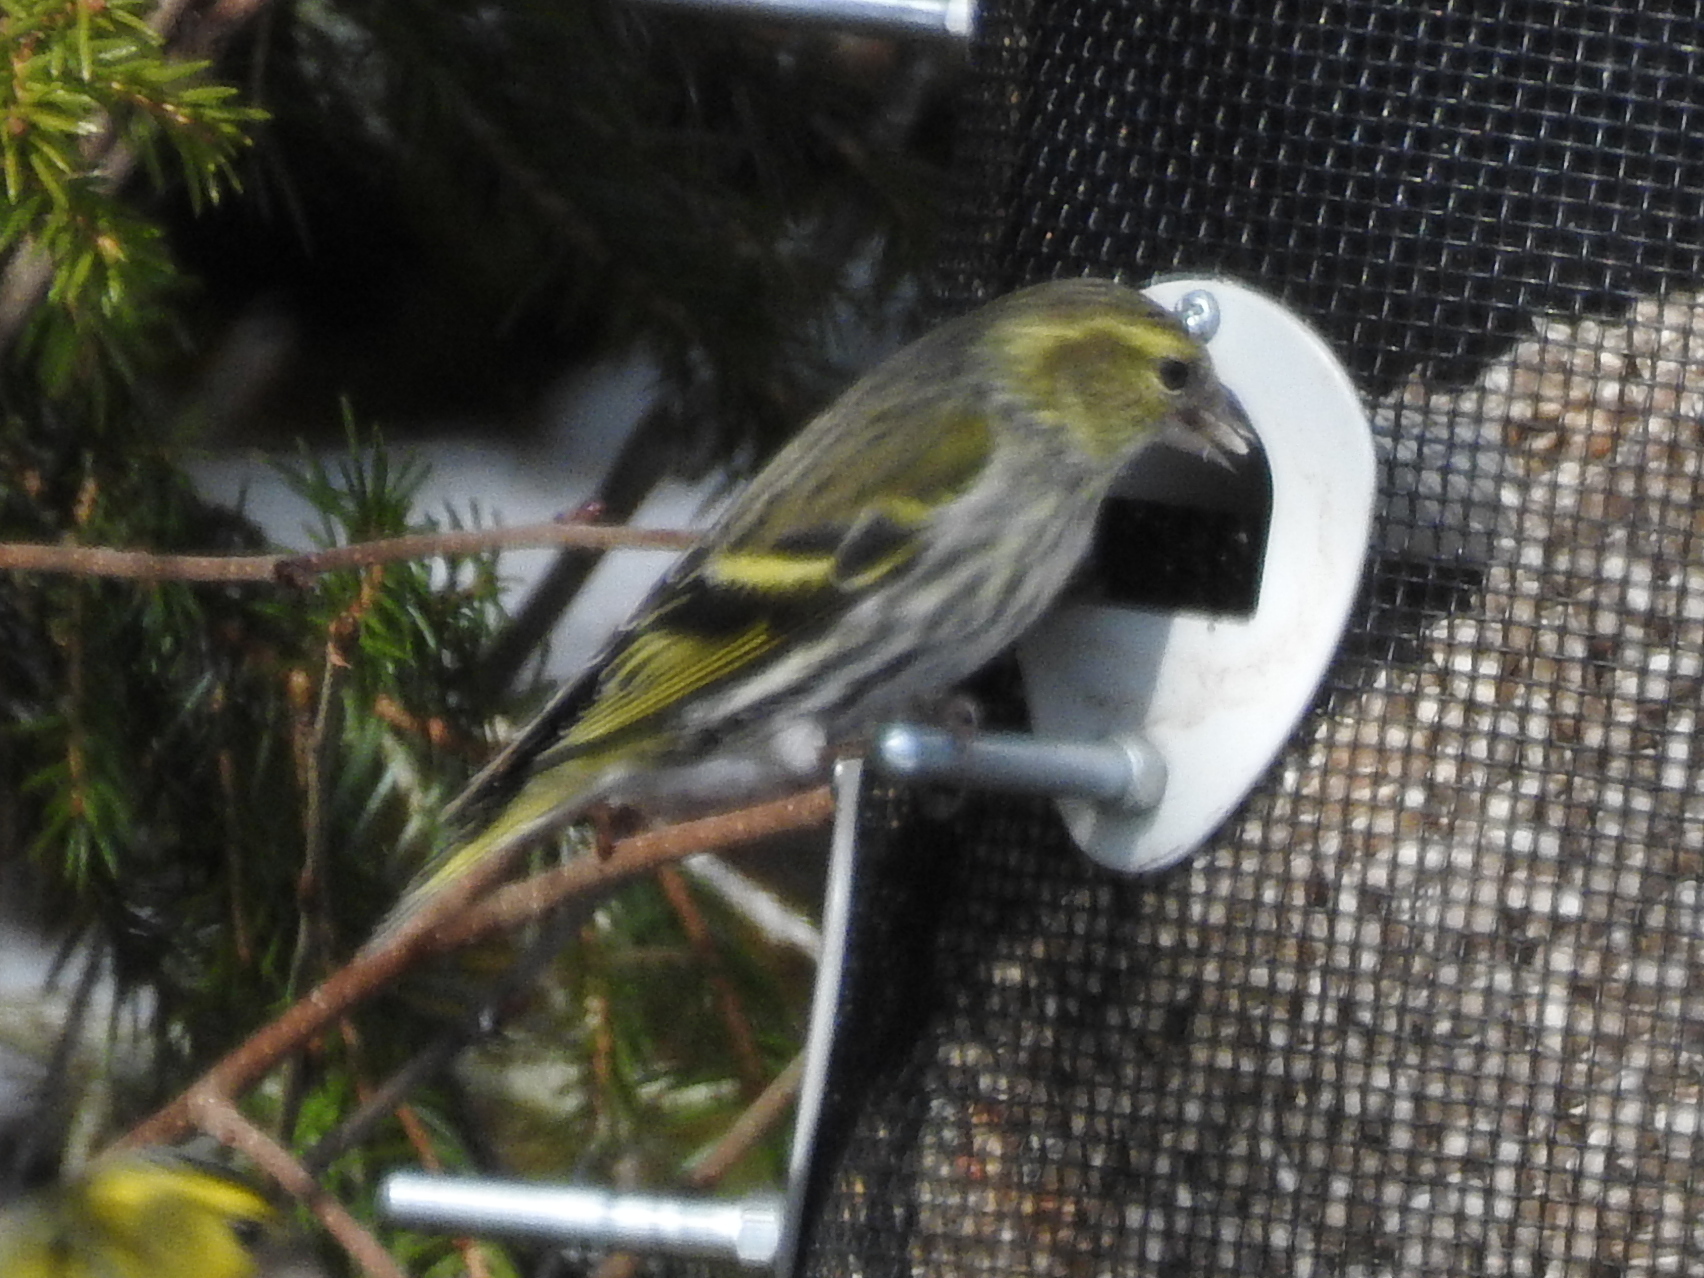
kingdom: Animalia
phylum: Chordata
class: Aves
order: Passeriformes
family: Fringillidae
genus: Spinus
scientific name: Spinus spinus
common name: Eurasian siskin
